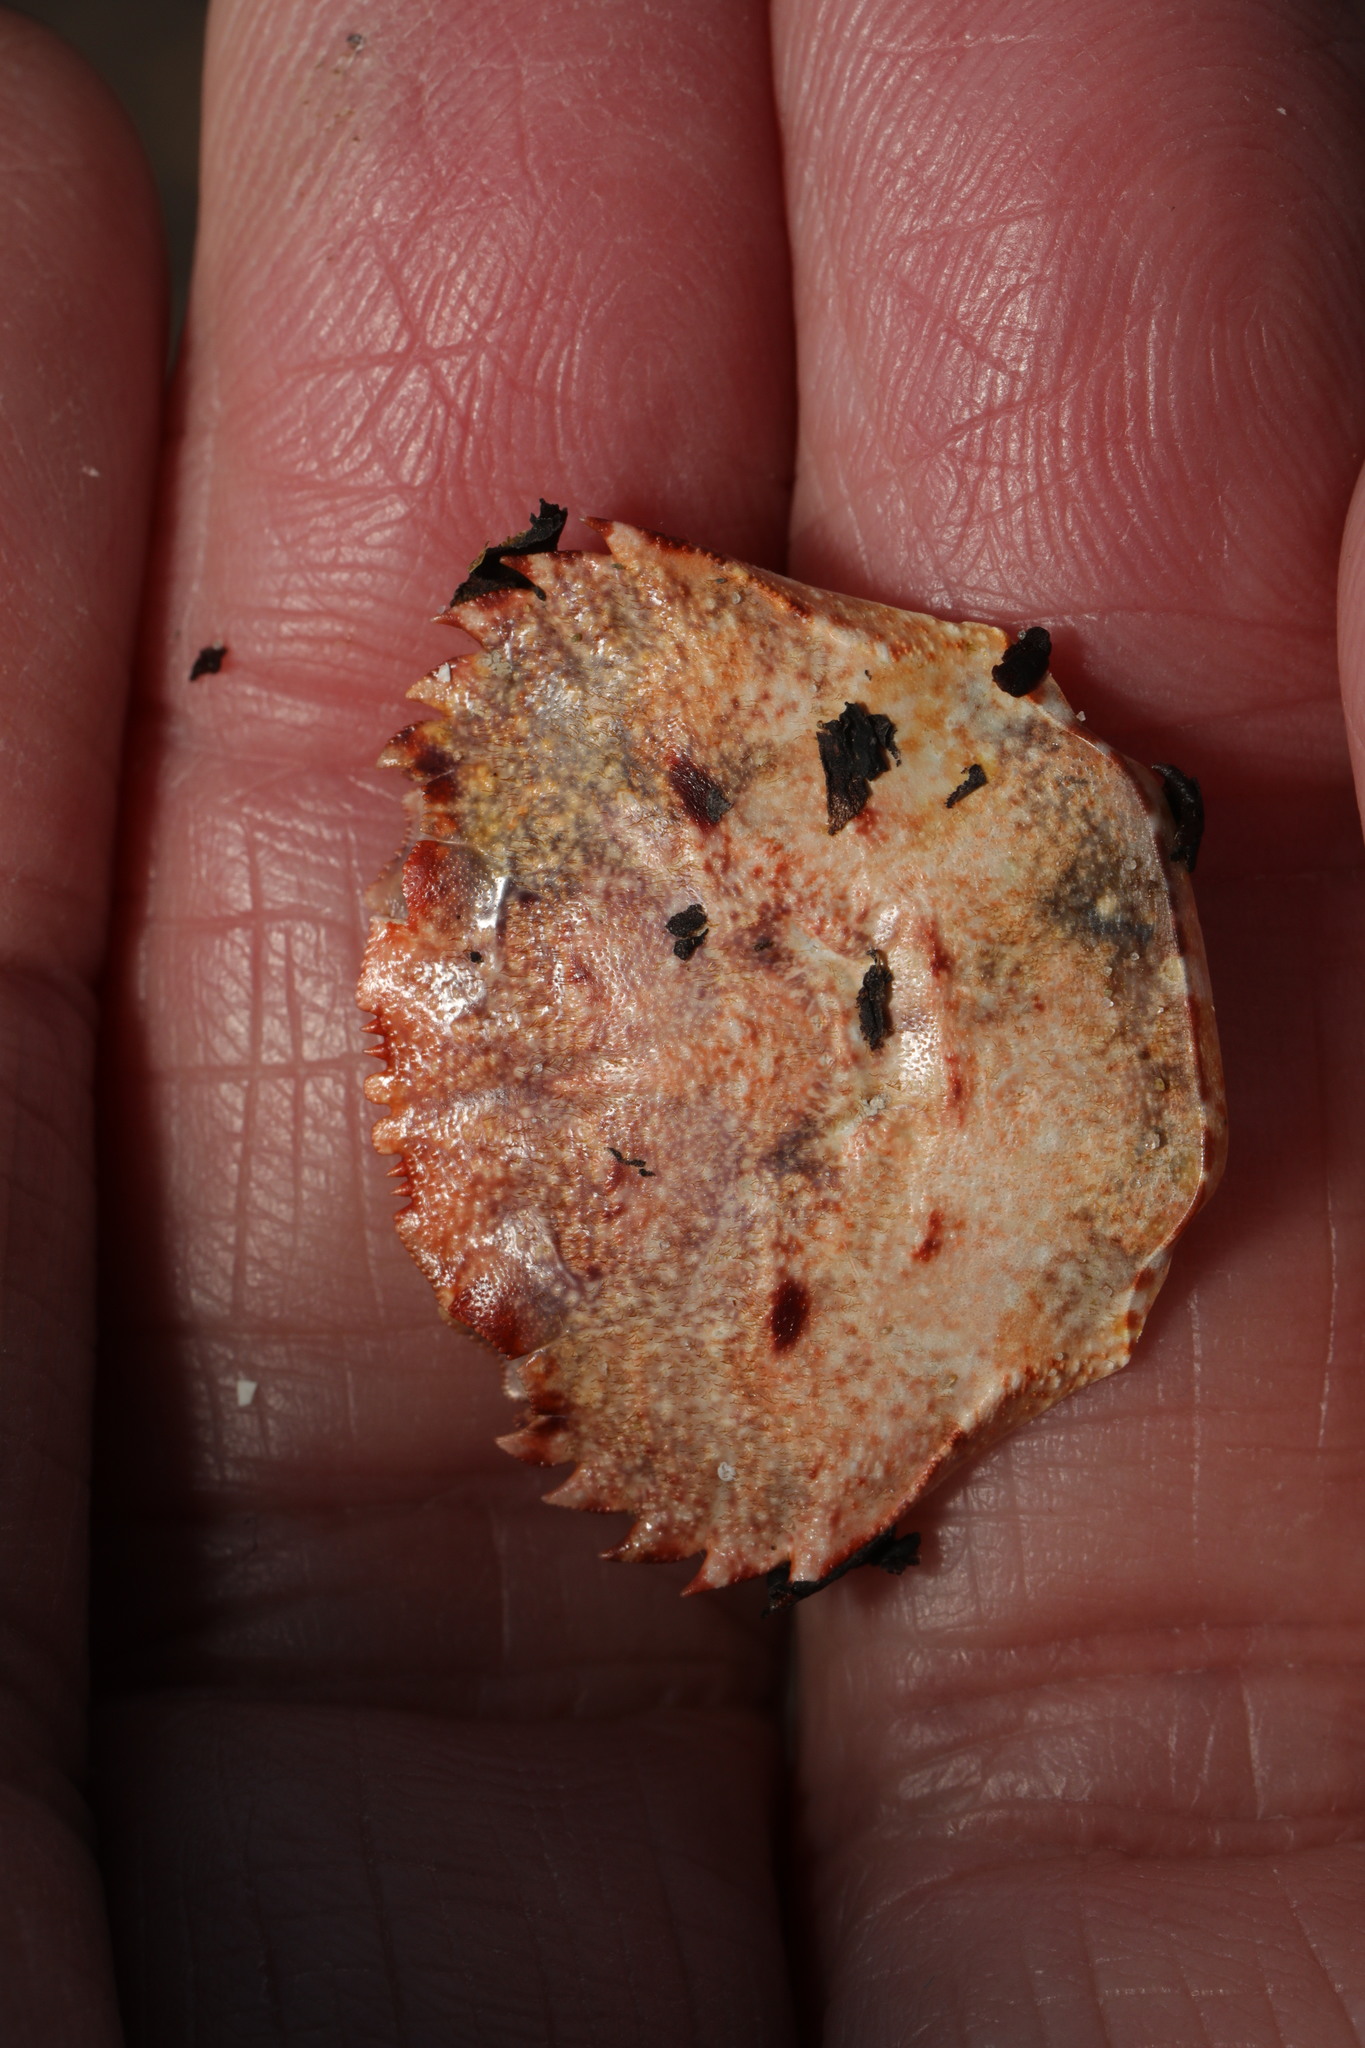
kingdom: Animalia
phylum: Arthropoda
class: Malacostraca
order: Decapoda
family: Polybiidae
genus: Necora
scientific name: Necora puber
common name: Velvet swimming crab
